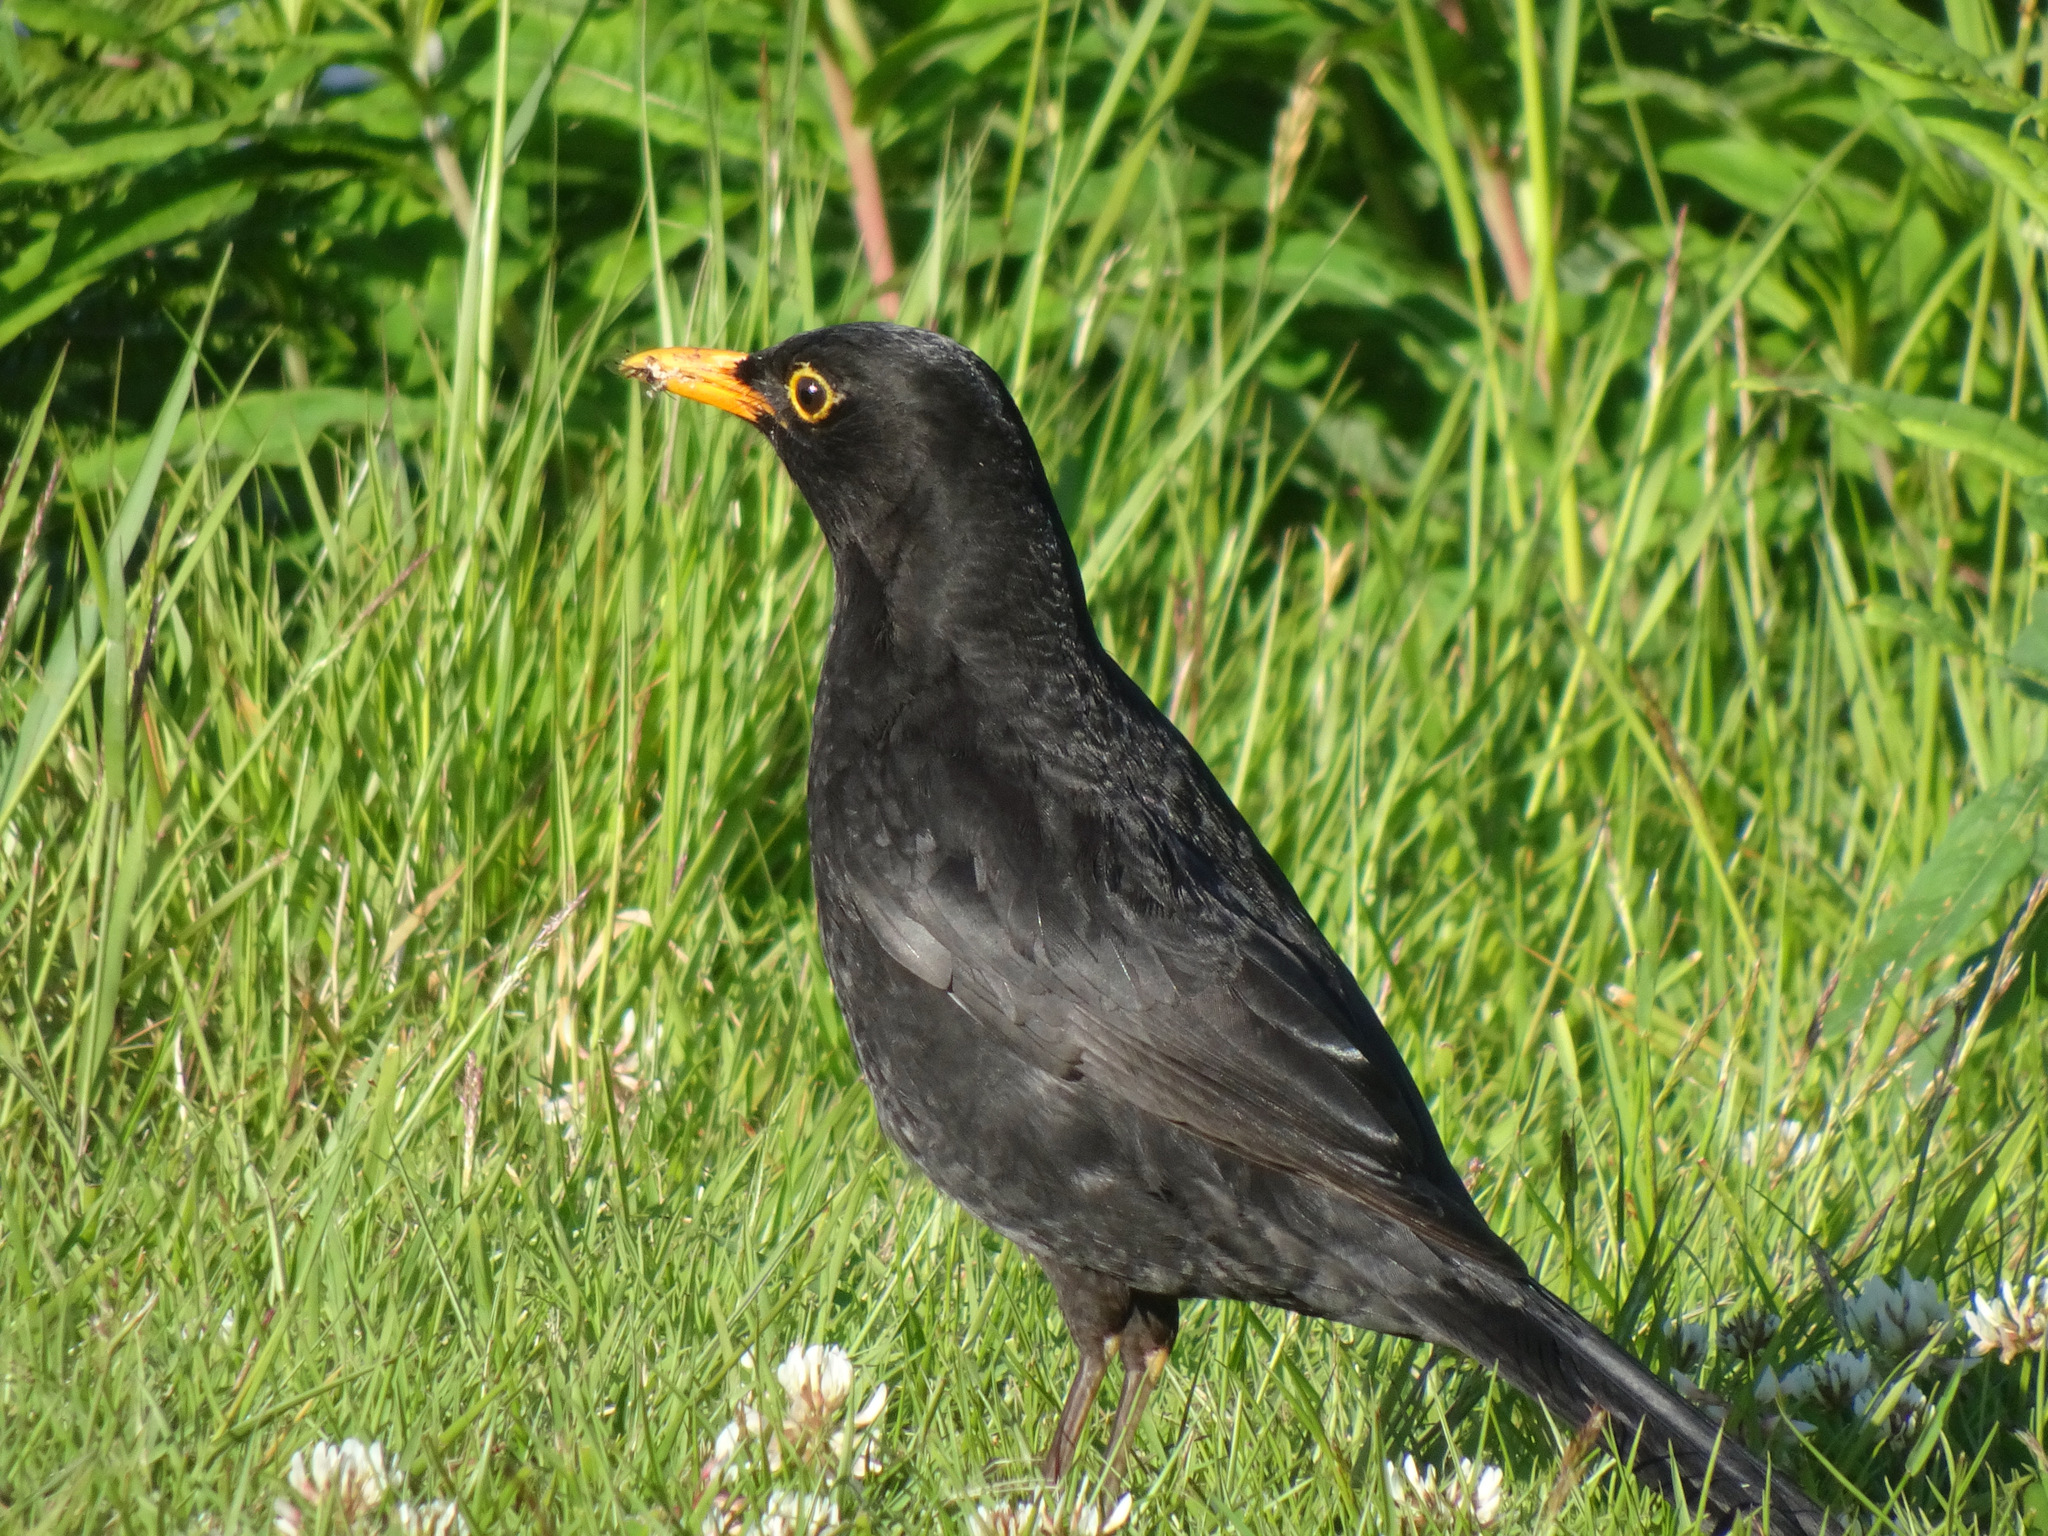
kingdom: Animalia
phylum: Chordata
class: Aves
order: Passeriformes
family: Turdidae
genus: Turdus
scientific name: Turdus merula
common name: Common blackbird
